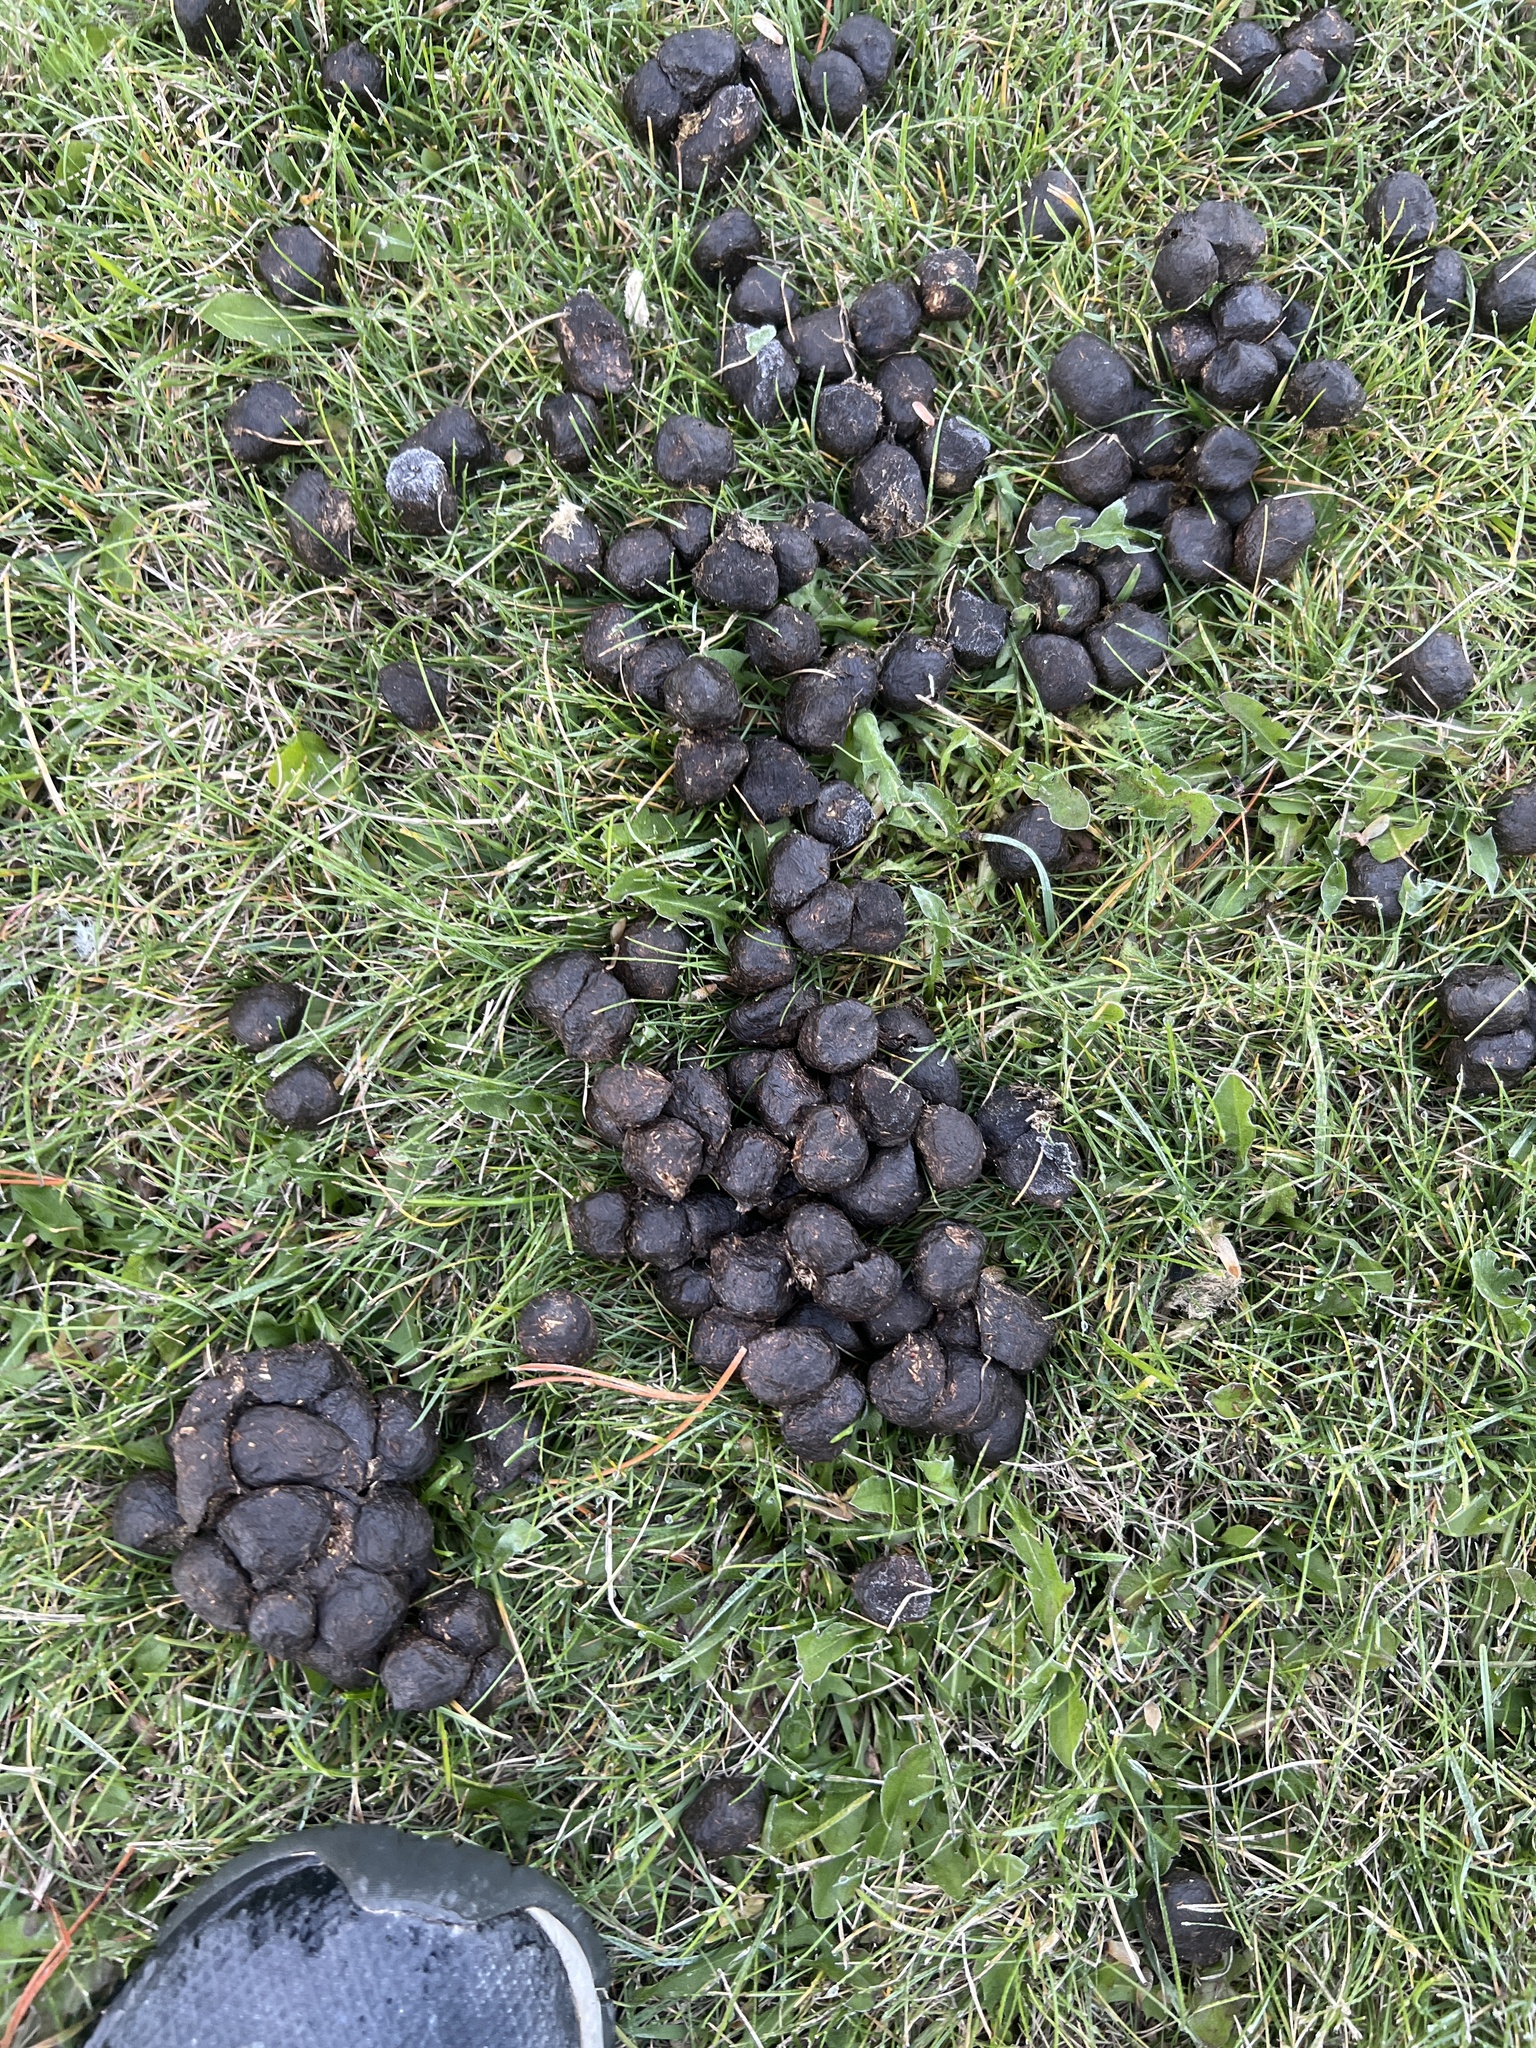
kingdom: Animalia
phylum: Chordata
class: Mammalia
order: Artiodactyla
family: Cervidae
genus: Cervus
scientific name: Cervus elaphus
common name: Red deer
